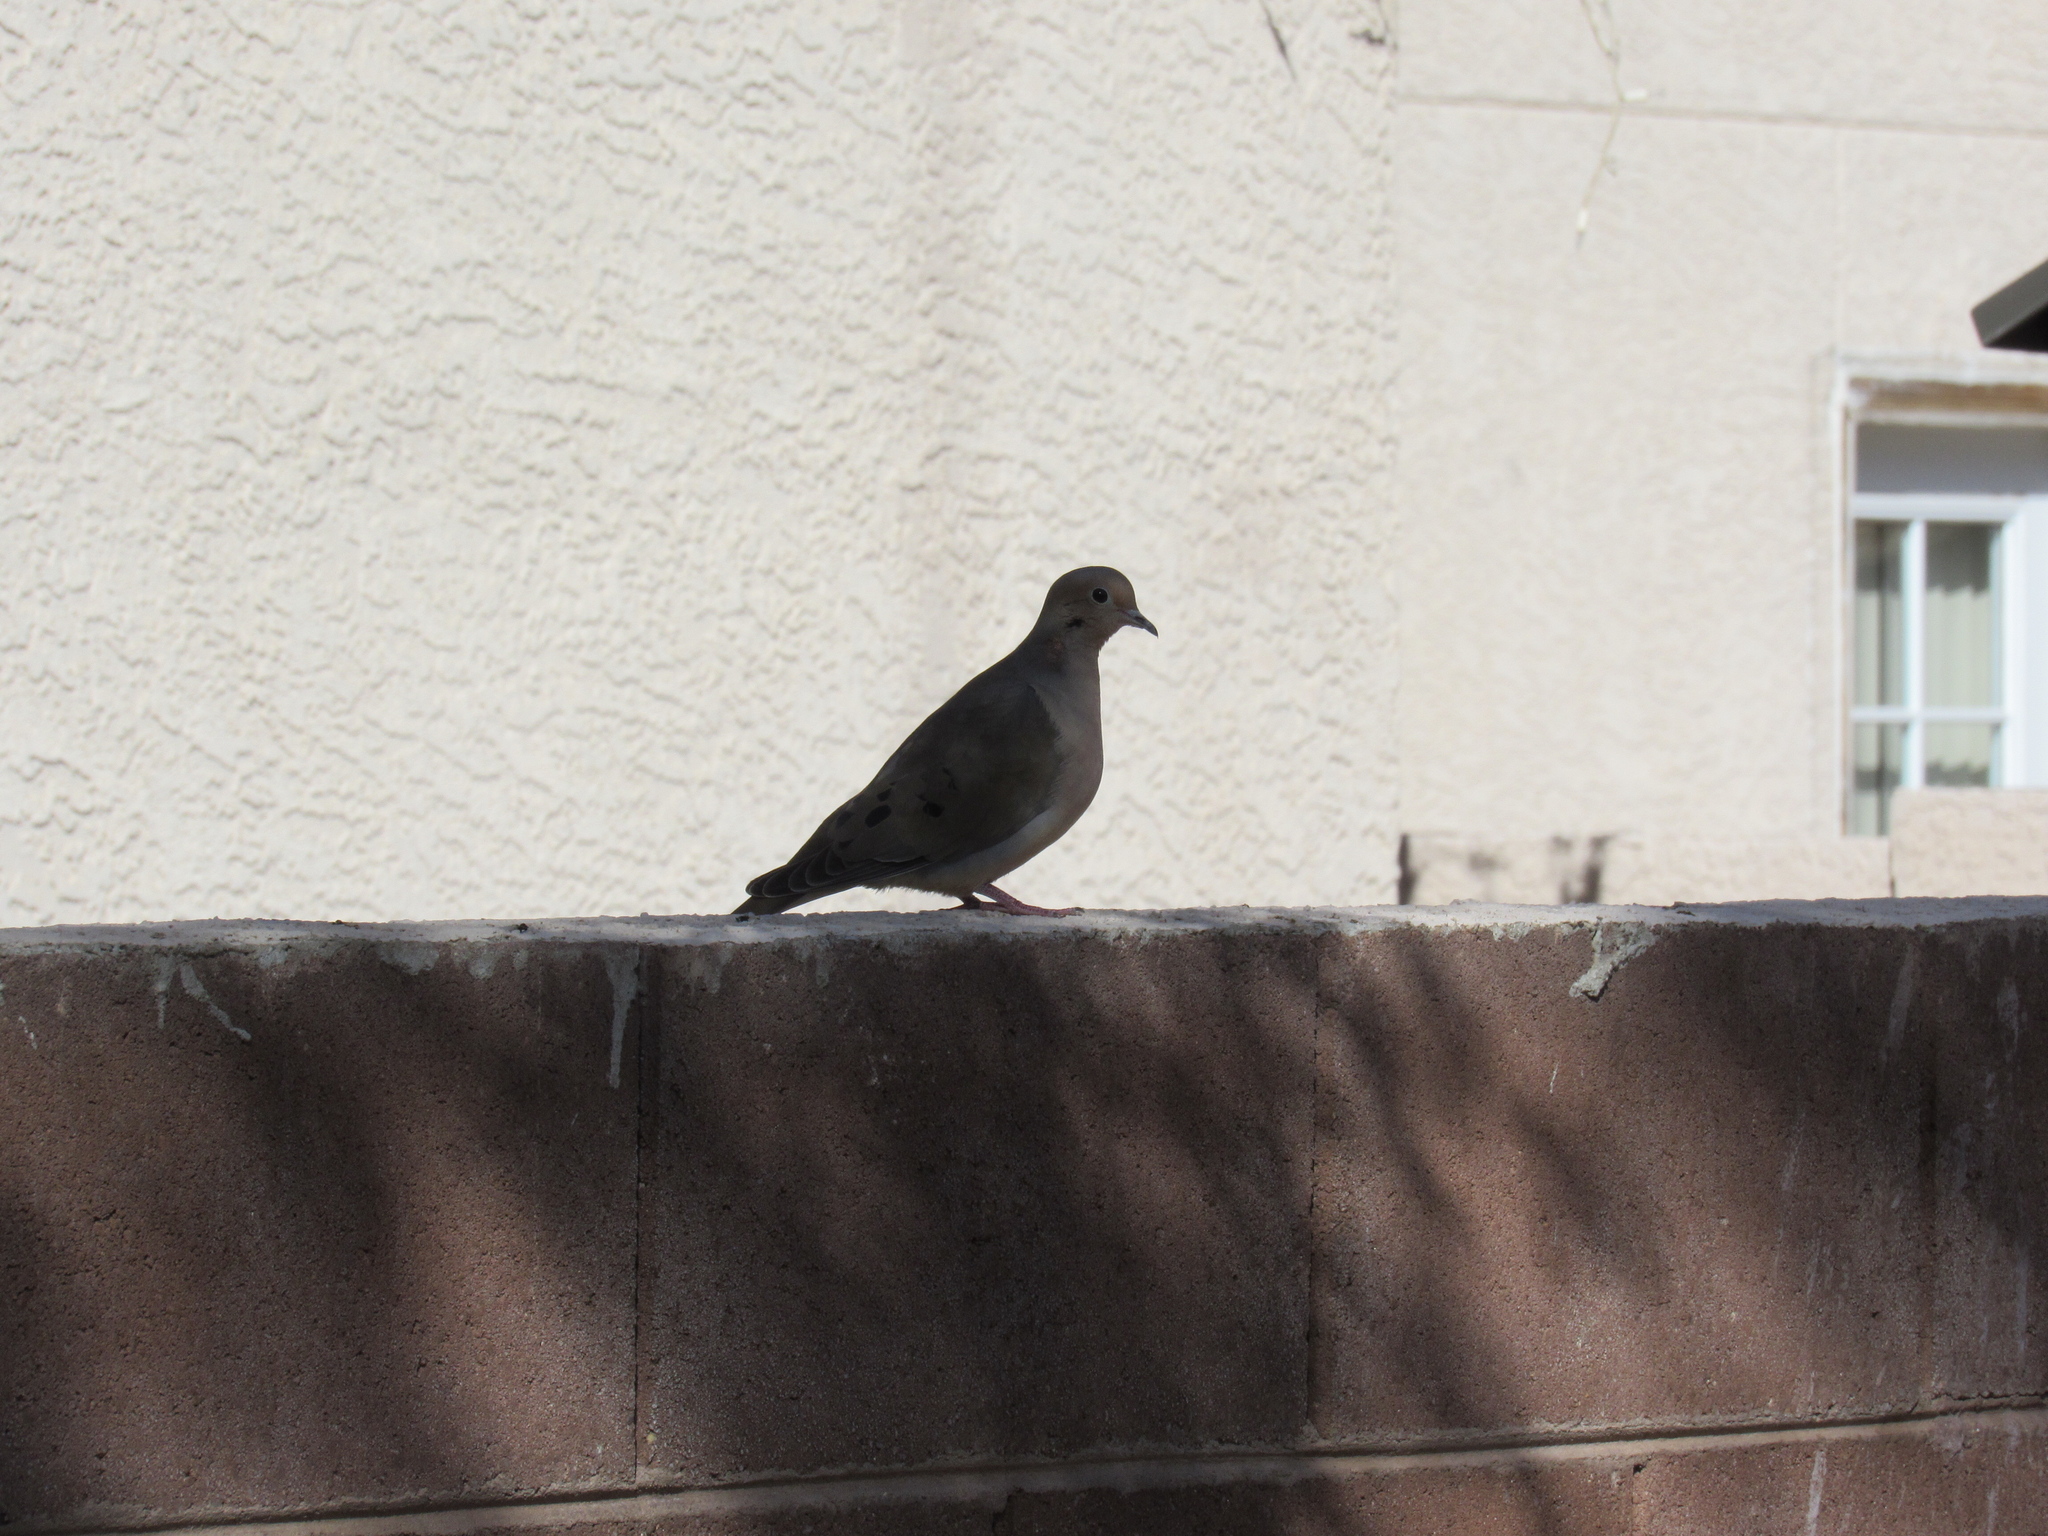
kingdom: Animalia
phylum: Chordata
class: Aves
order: Columbiformes
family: Columbidae
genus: Zenaida
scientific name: Zenaida macroura
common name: Mourning dove
